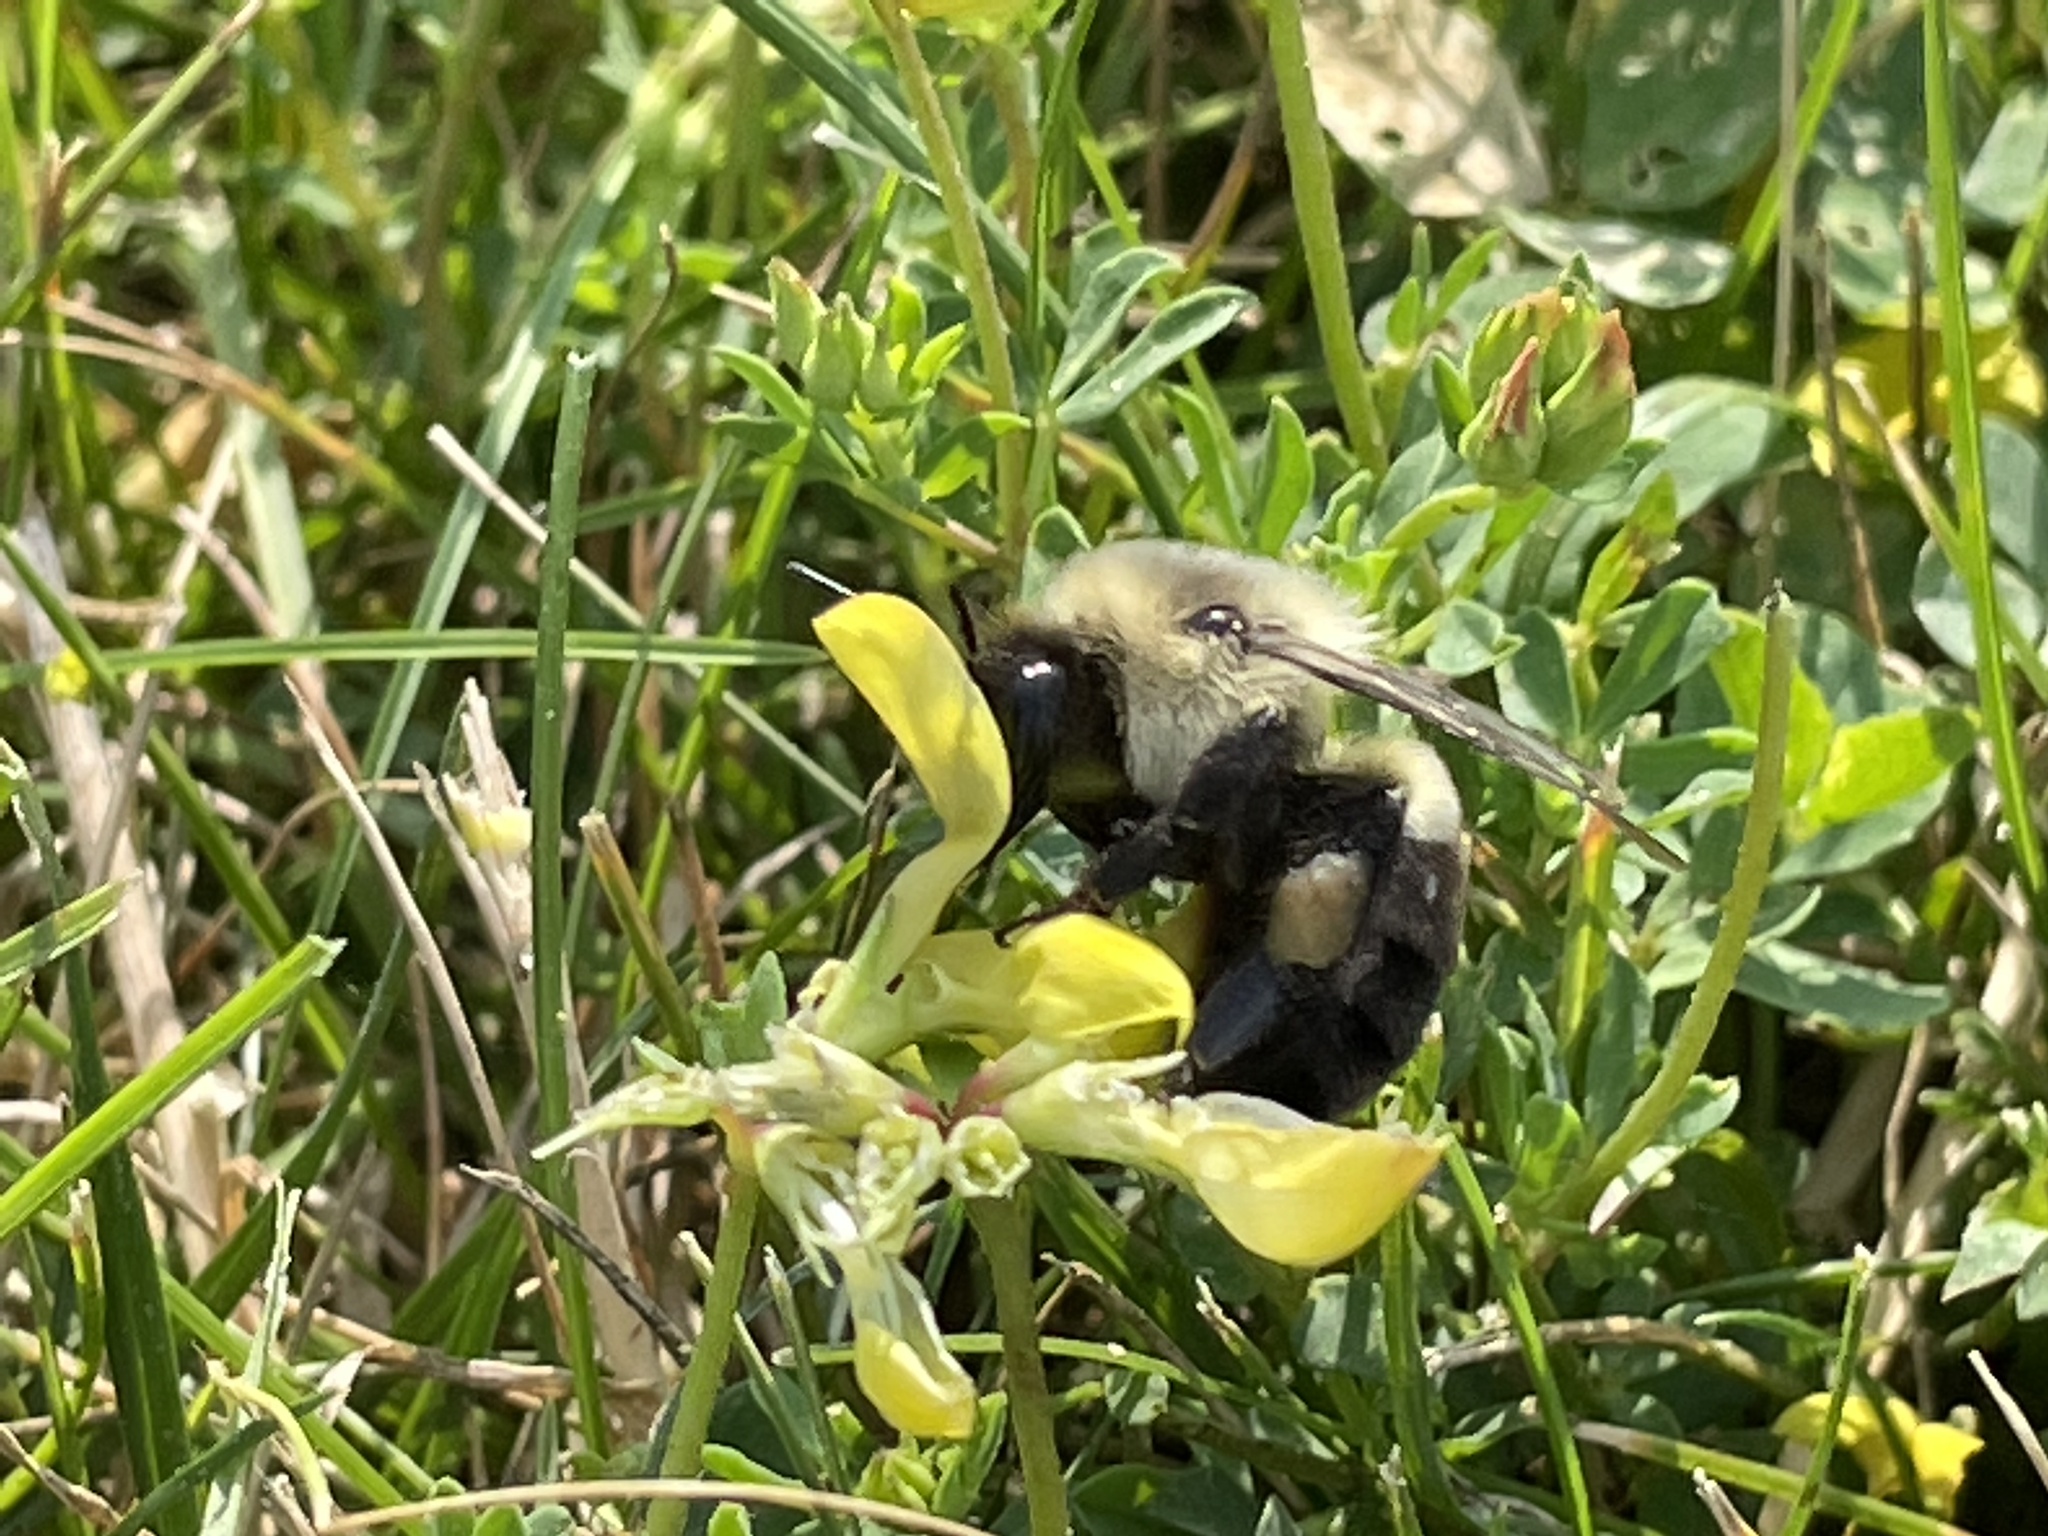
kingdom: Animalia
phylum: Arthropoda
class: Insecta
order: Hymenoptera
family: Apidae
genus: Bombus
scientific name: Bombus impatiens
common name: Common eastern bumble bee
